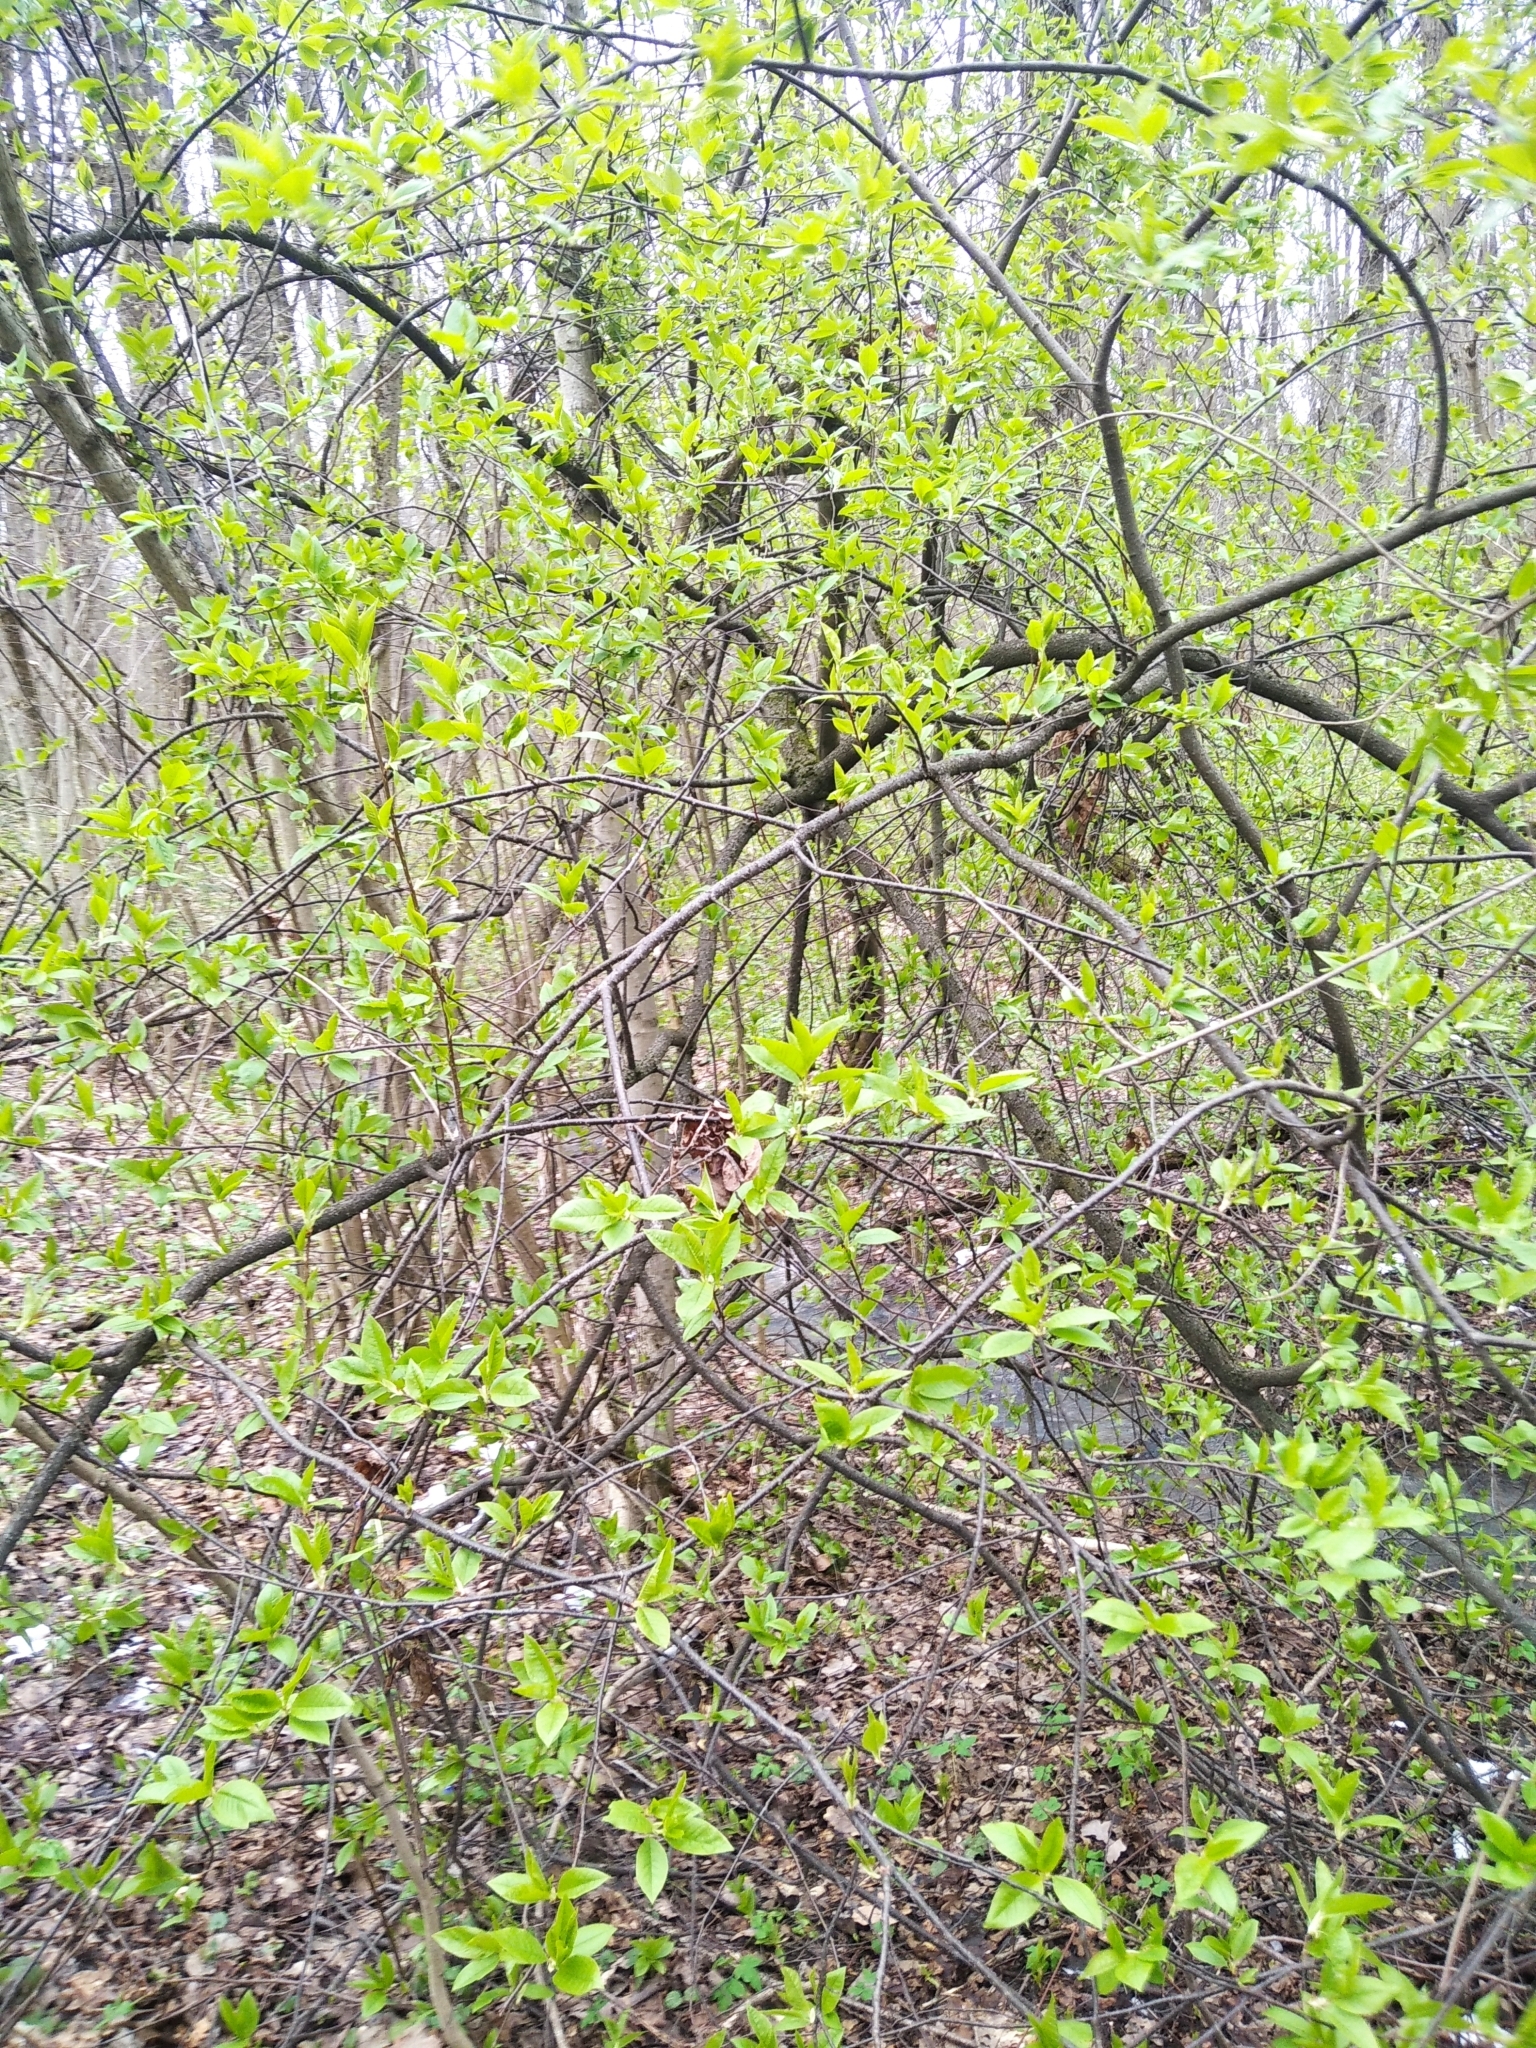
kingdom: Plantae
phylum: Tracheophyta
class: Magnoliopsida
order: Rosales
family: Rosaceae
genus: Prunus
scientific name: Prunus padus
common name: Bird cherry
